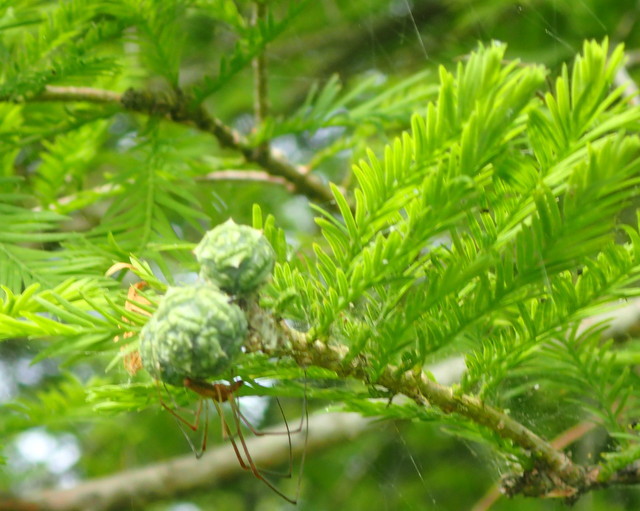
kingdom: Plantae
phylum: Tracheophyta
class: Pinopsida
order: Pinales
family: Cupressaceae
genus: Taxodium
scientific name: Taxodium distichum
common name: Bald cypress
